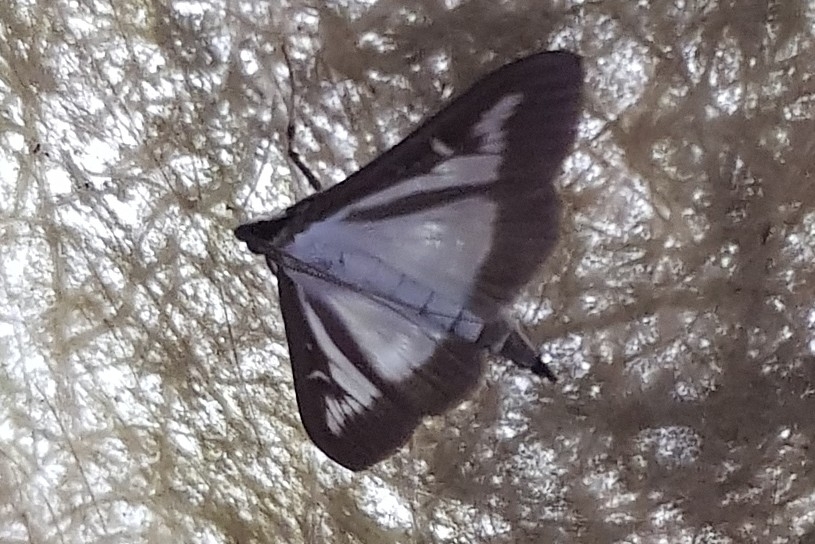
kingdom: Animalia
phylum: Arthropoda
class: Insecta
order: Lepidoptera
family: Crambidae
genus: Cydalima
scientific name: Cydalima perspectalis
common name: Box tree moth
